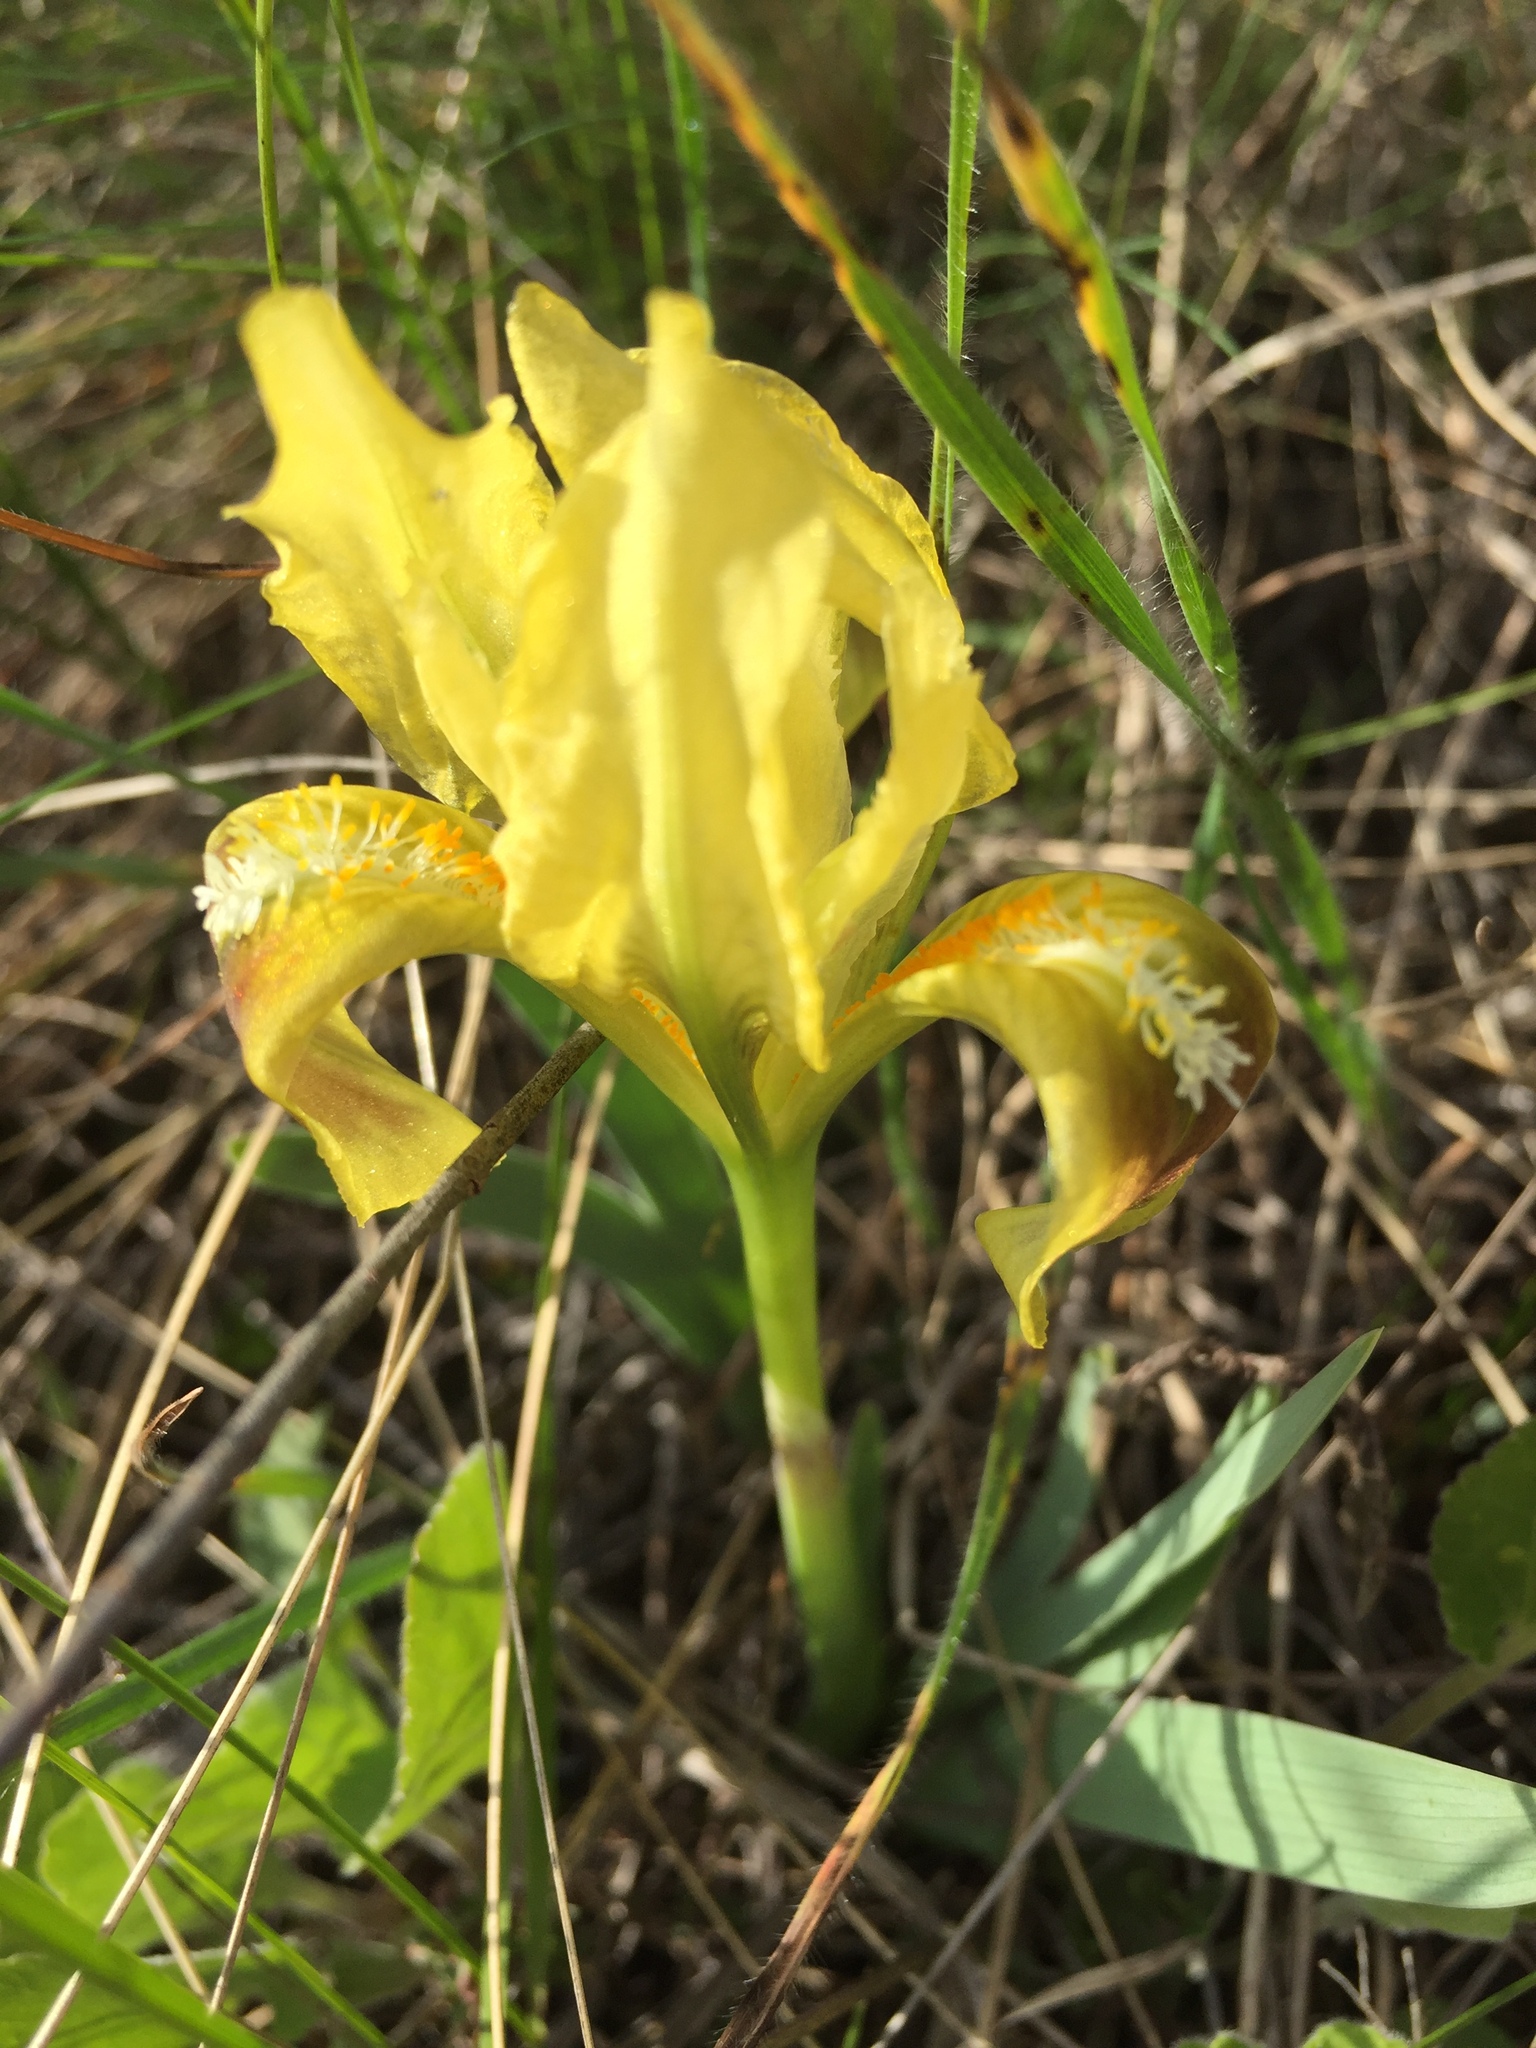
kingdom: Plantae
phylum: Tracheophyta
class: Liliopsida
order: Asparagales
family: Iridaceae
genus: Iris
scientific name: Iris pumila
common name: Dwarf iris
